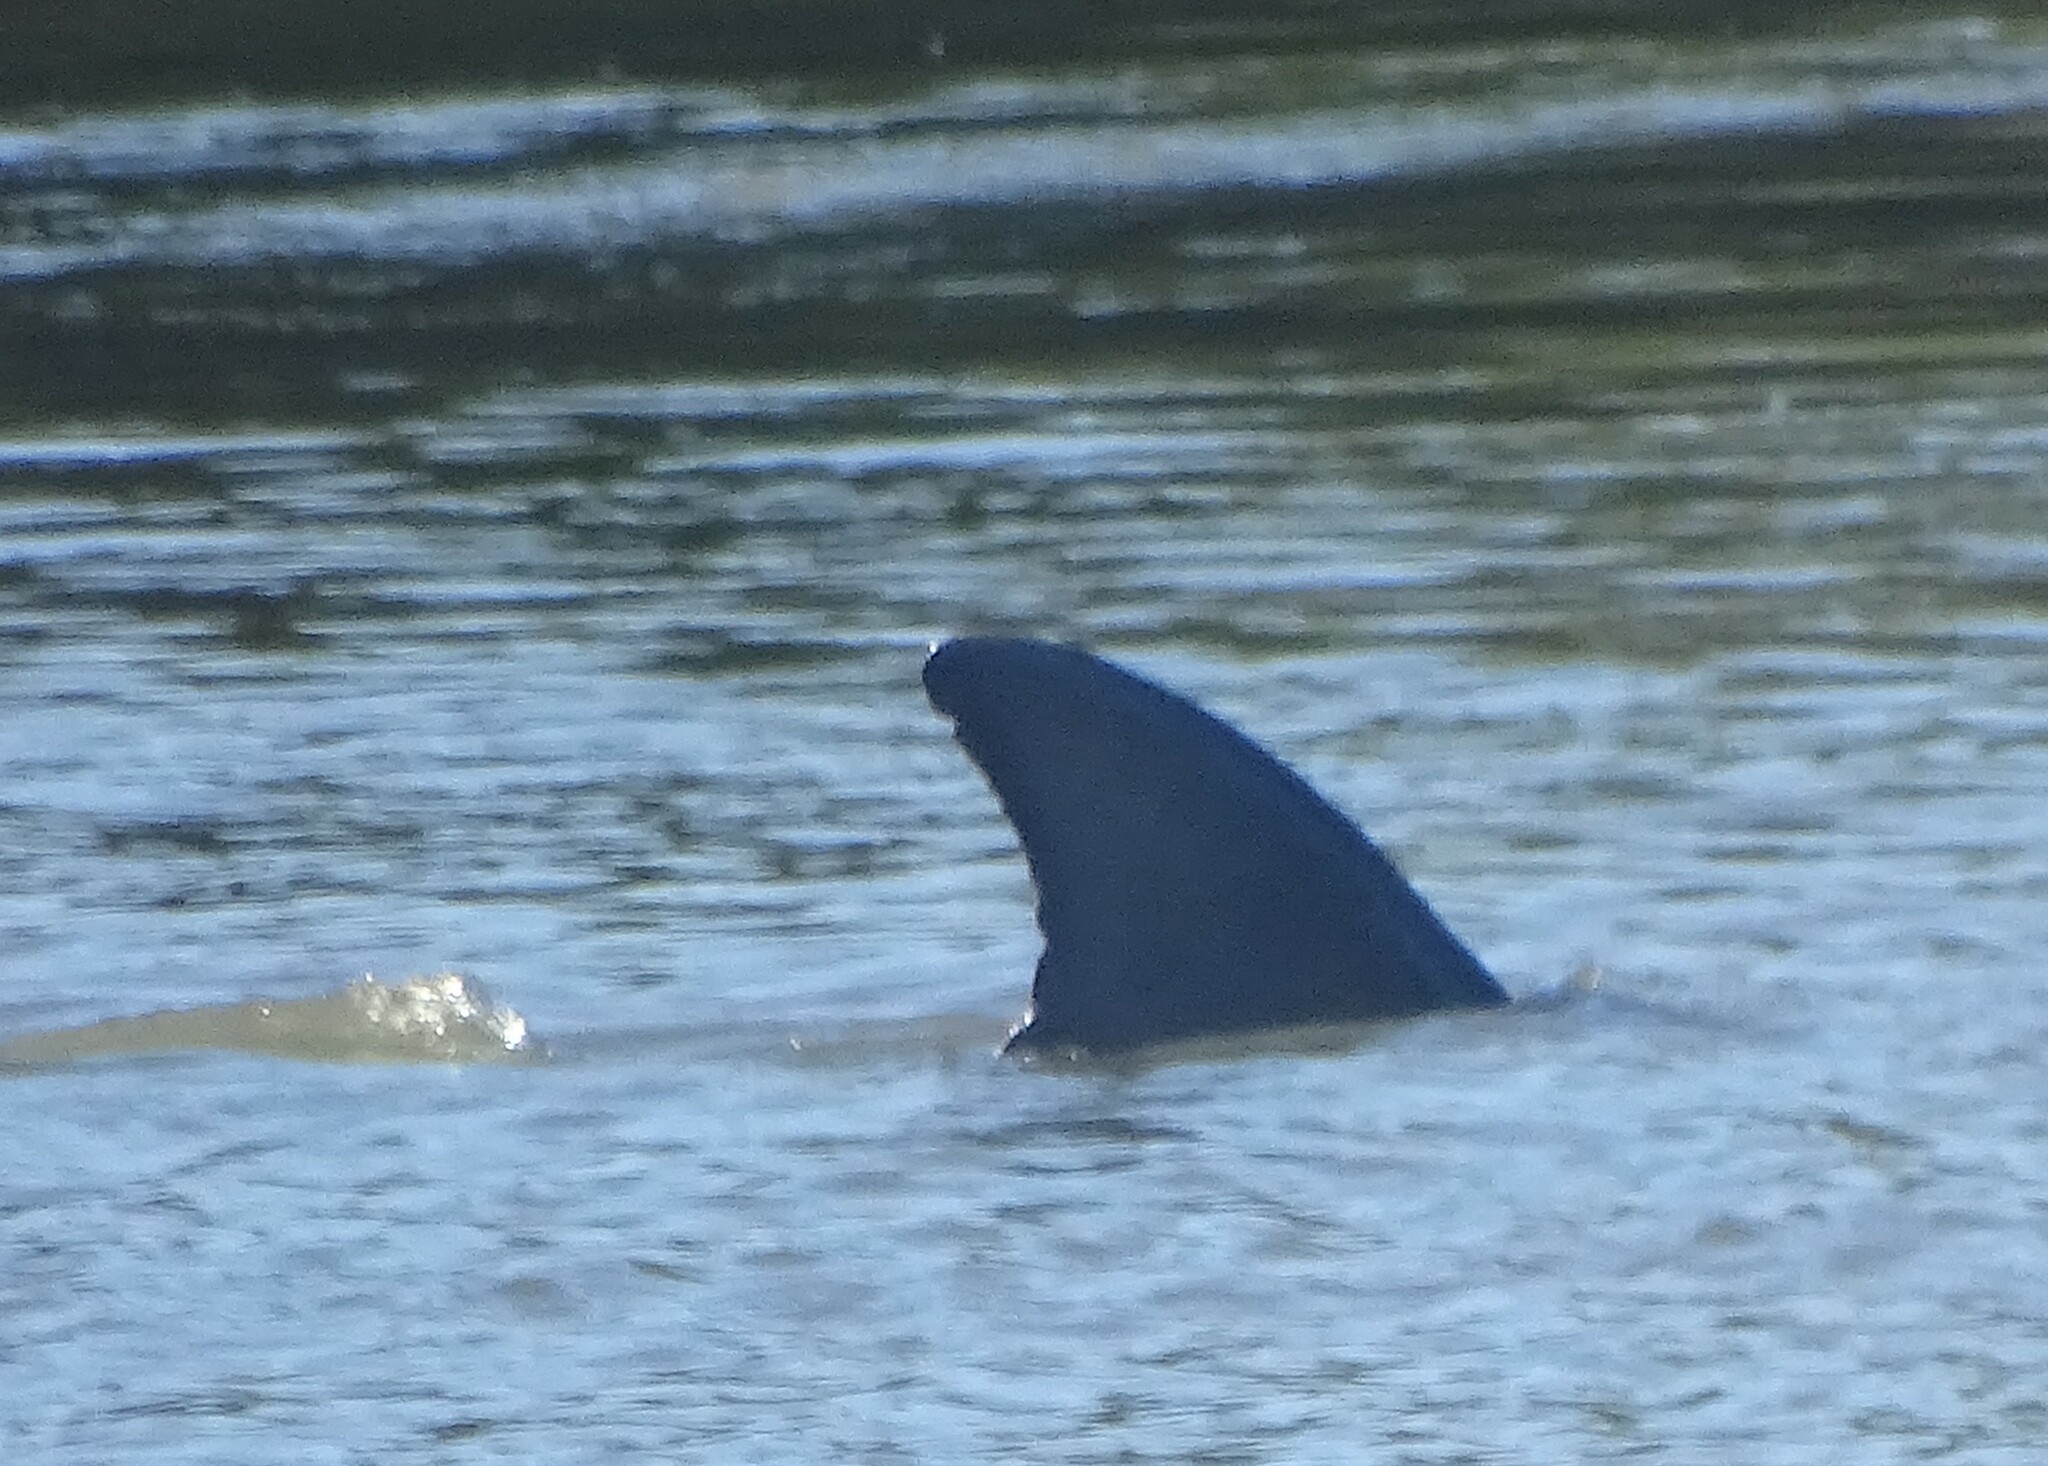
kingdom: Animalia
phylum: Chordata
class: Mammalia
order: Cetacea
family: Delphinidae
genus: Tursiops
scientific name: Tursiops truncatus
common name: Bottlenose dolphin
